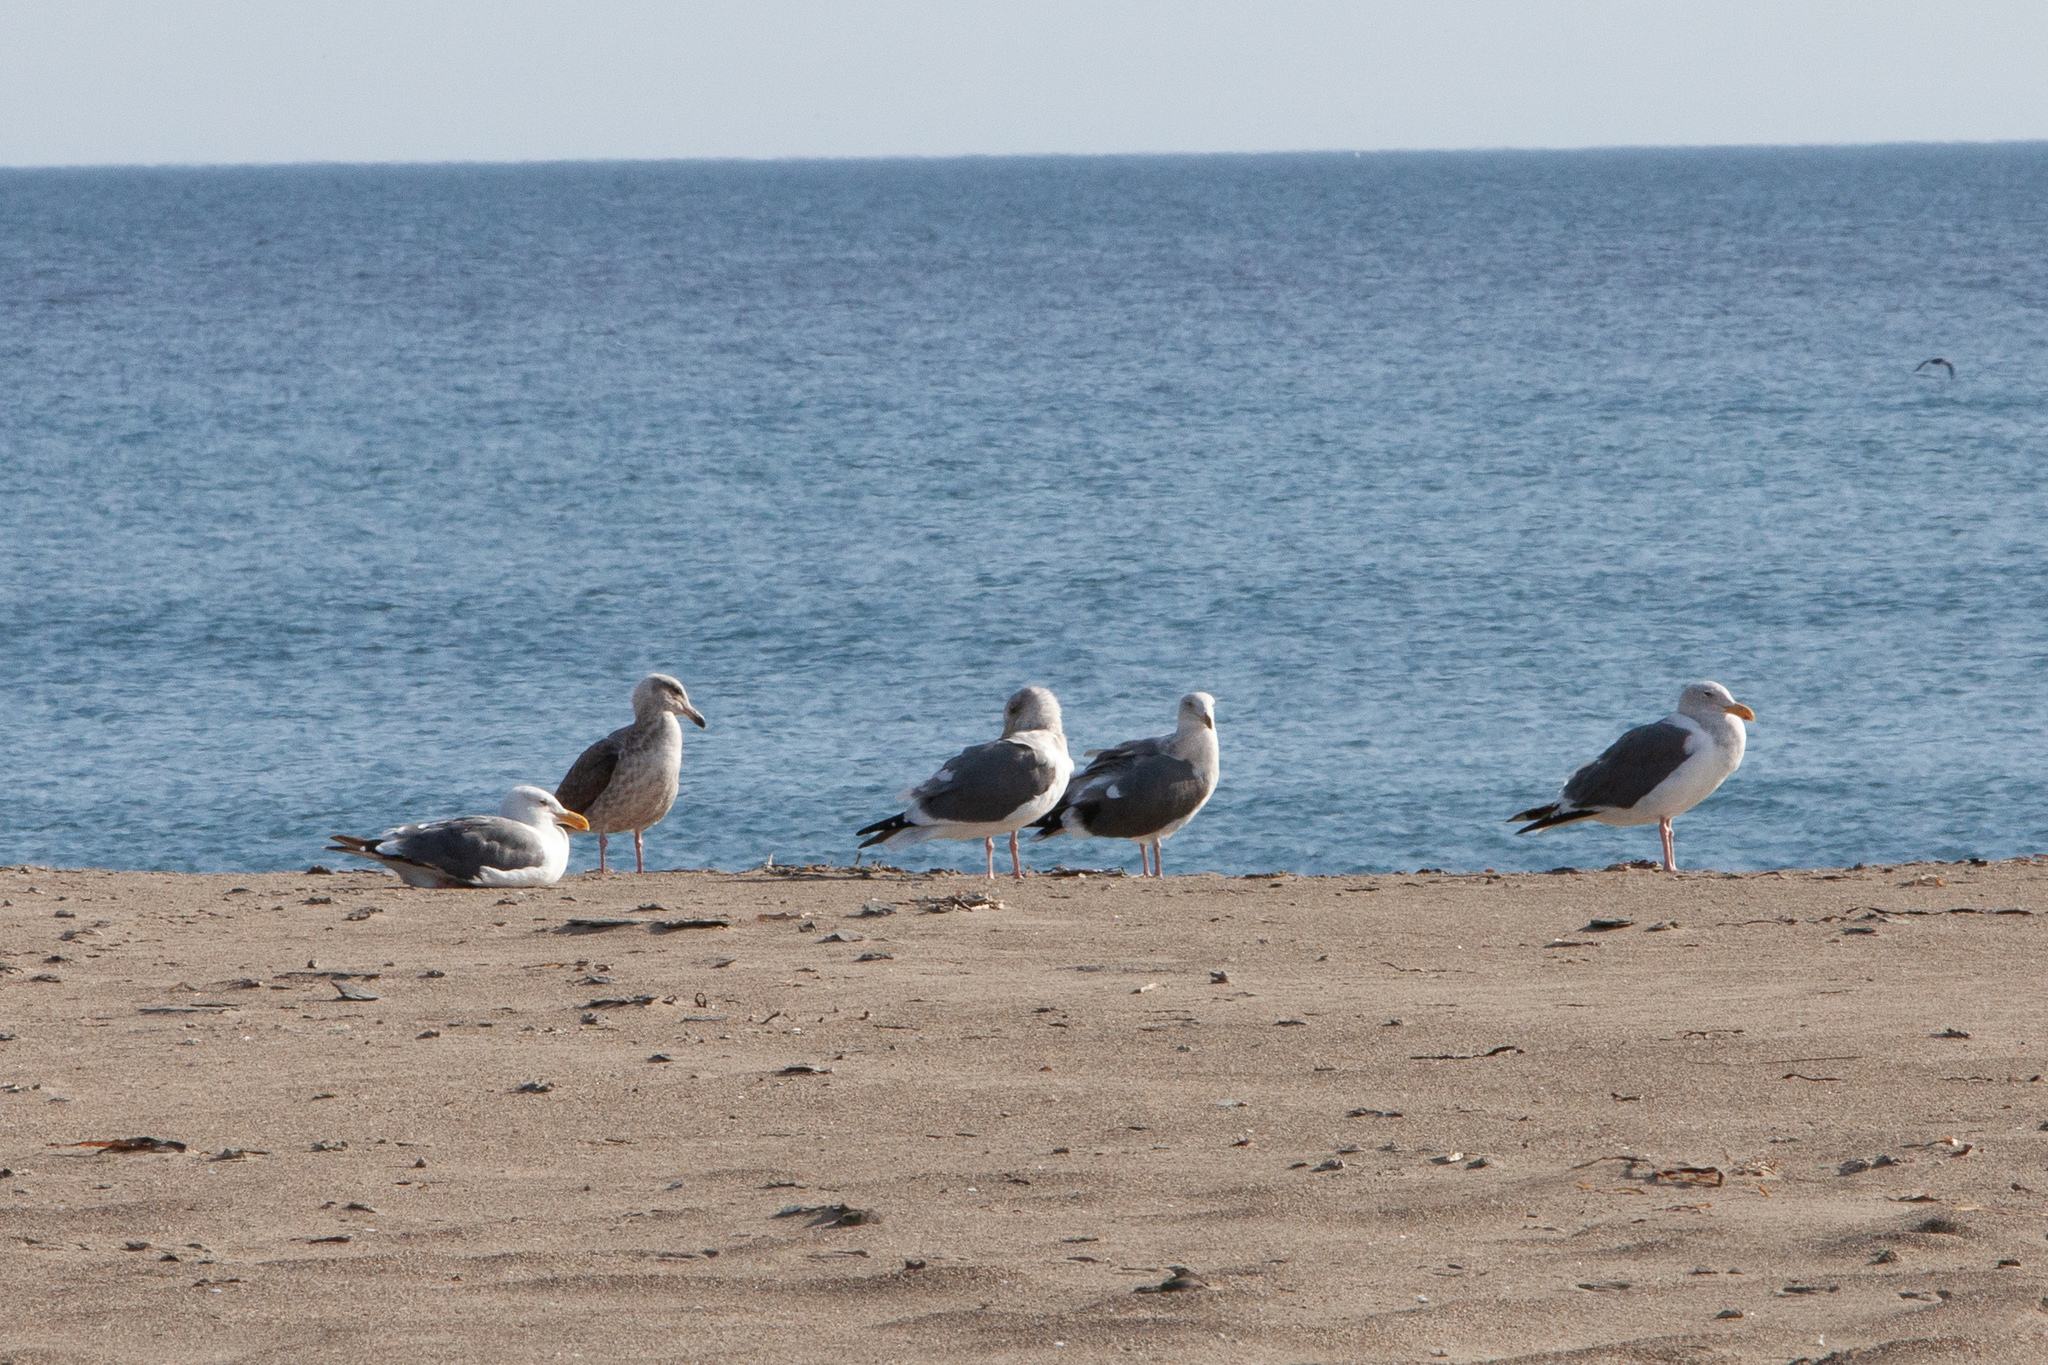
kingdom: Animalia
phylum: Chordata
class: Aves
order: Charadriiformes
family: Laridae
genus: Larus
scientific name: Larus occidentalis
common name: Western gull
